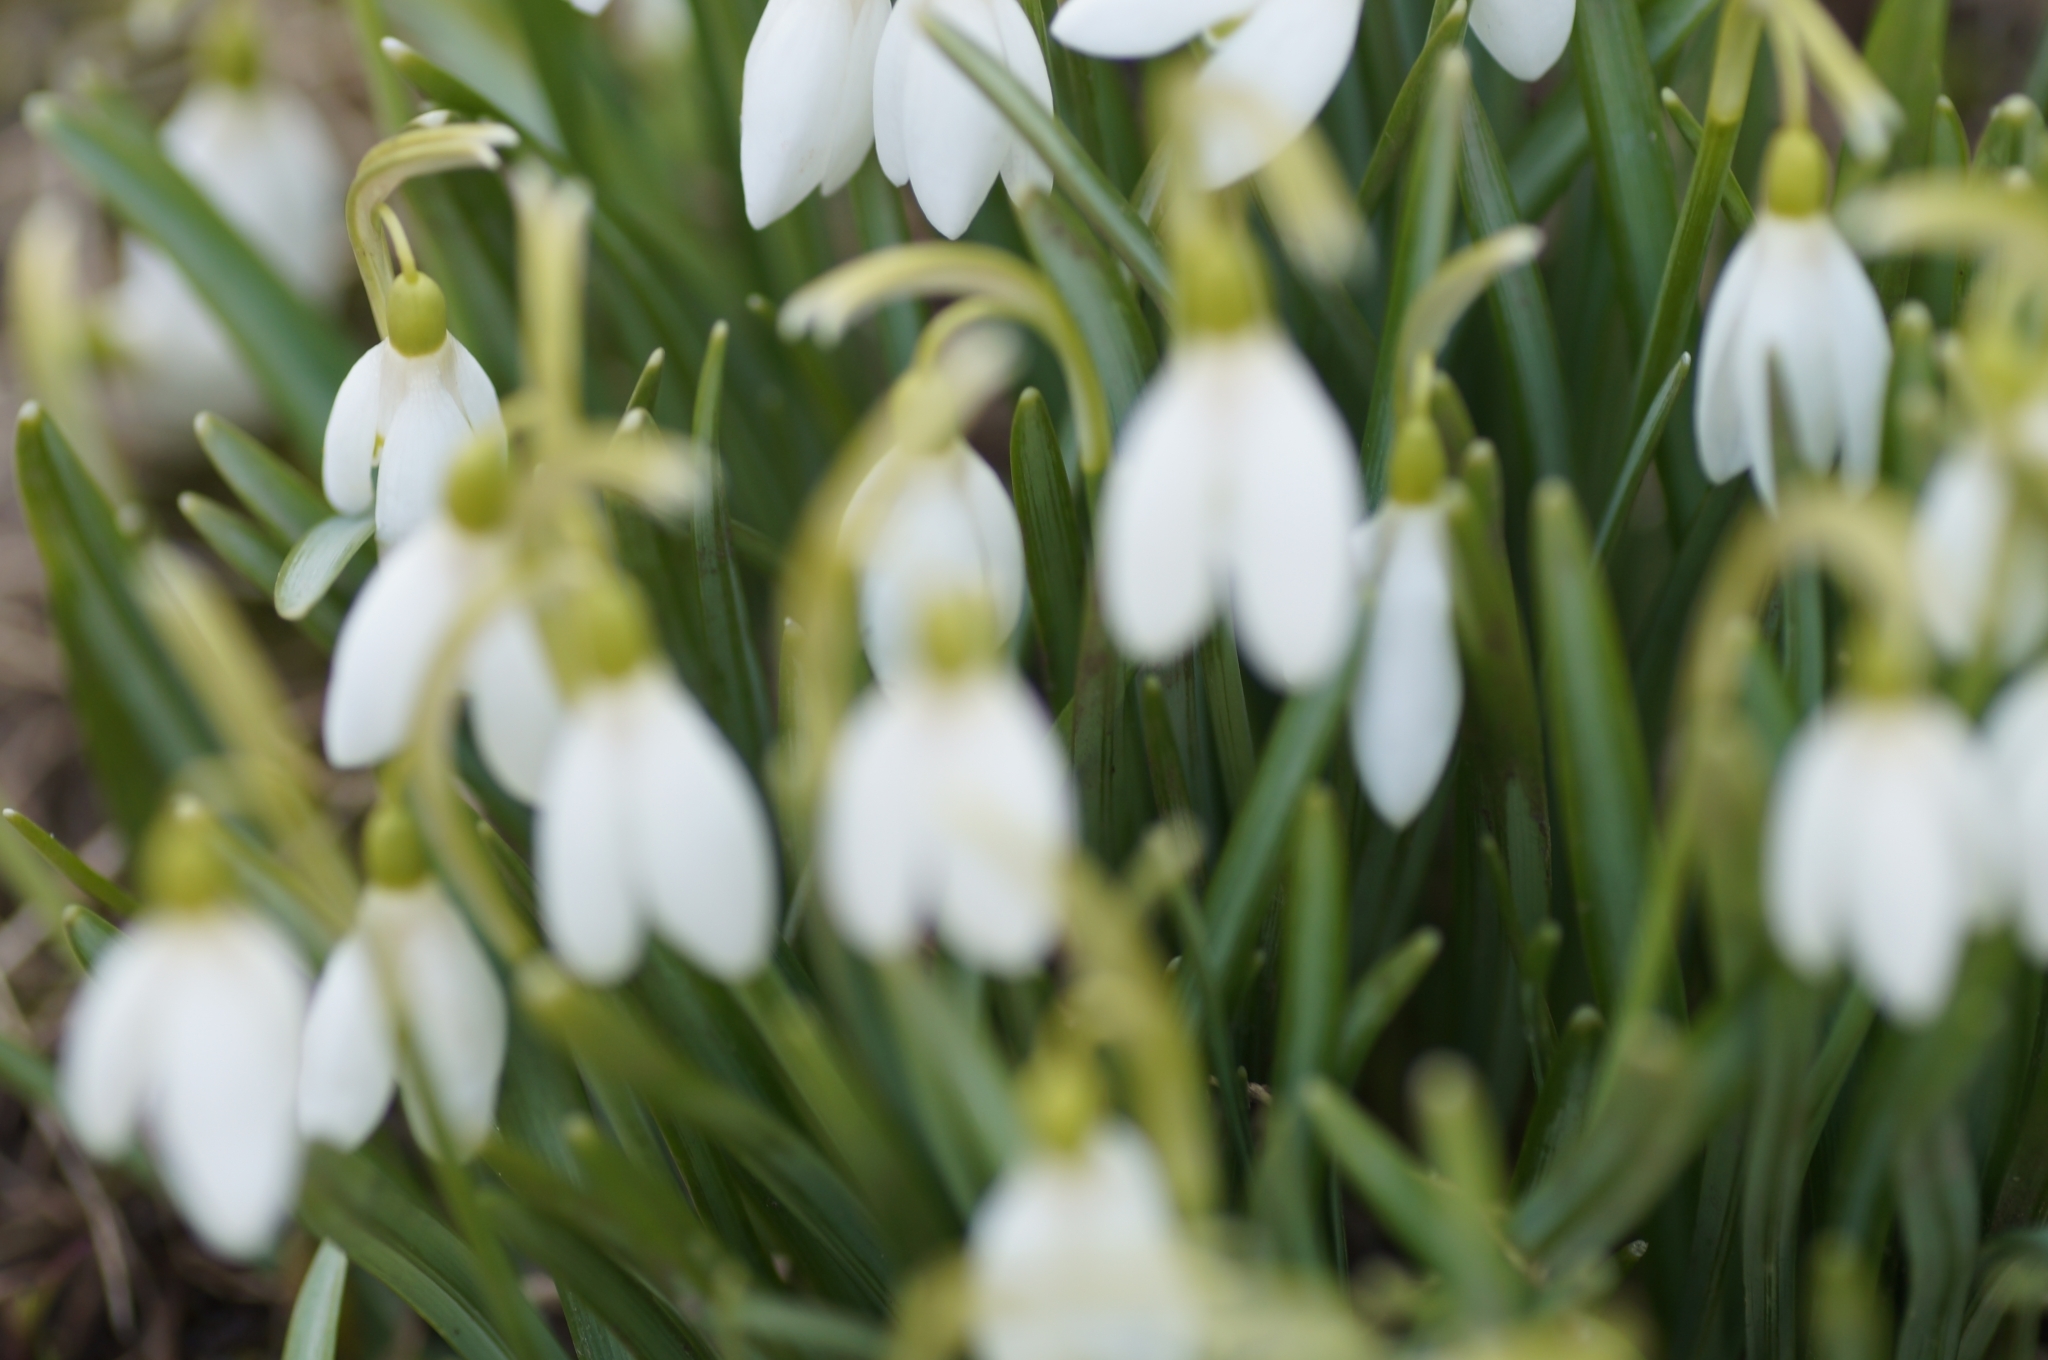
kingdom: Plantae
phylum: Tracheophyta
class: Liliopsida
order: Asparagales
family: Amaryllidaceae
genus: Galanthus
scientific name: Galanthus nivalis
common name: Snowdrop
